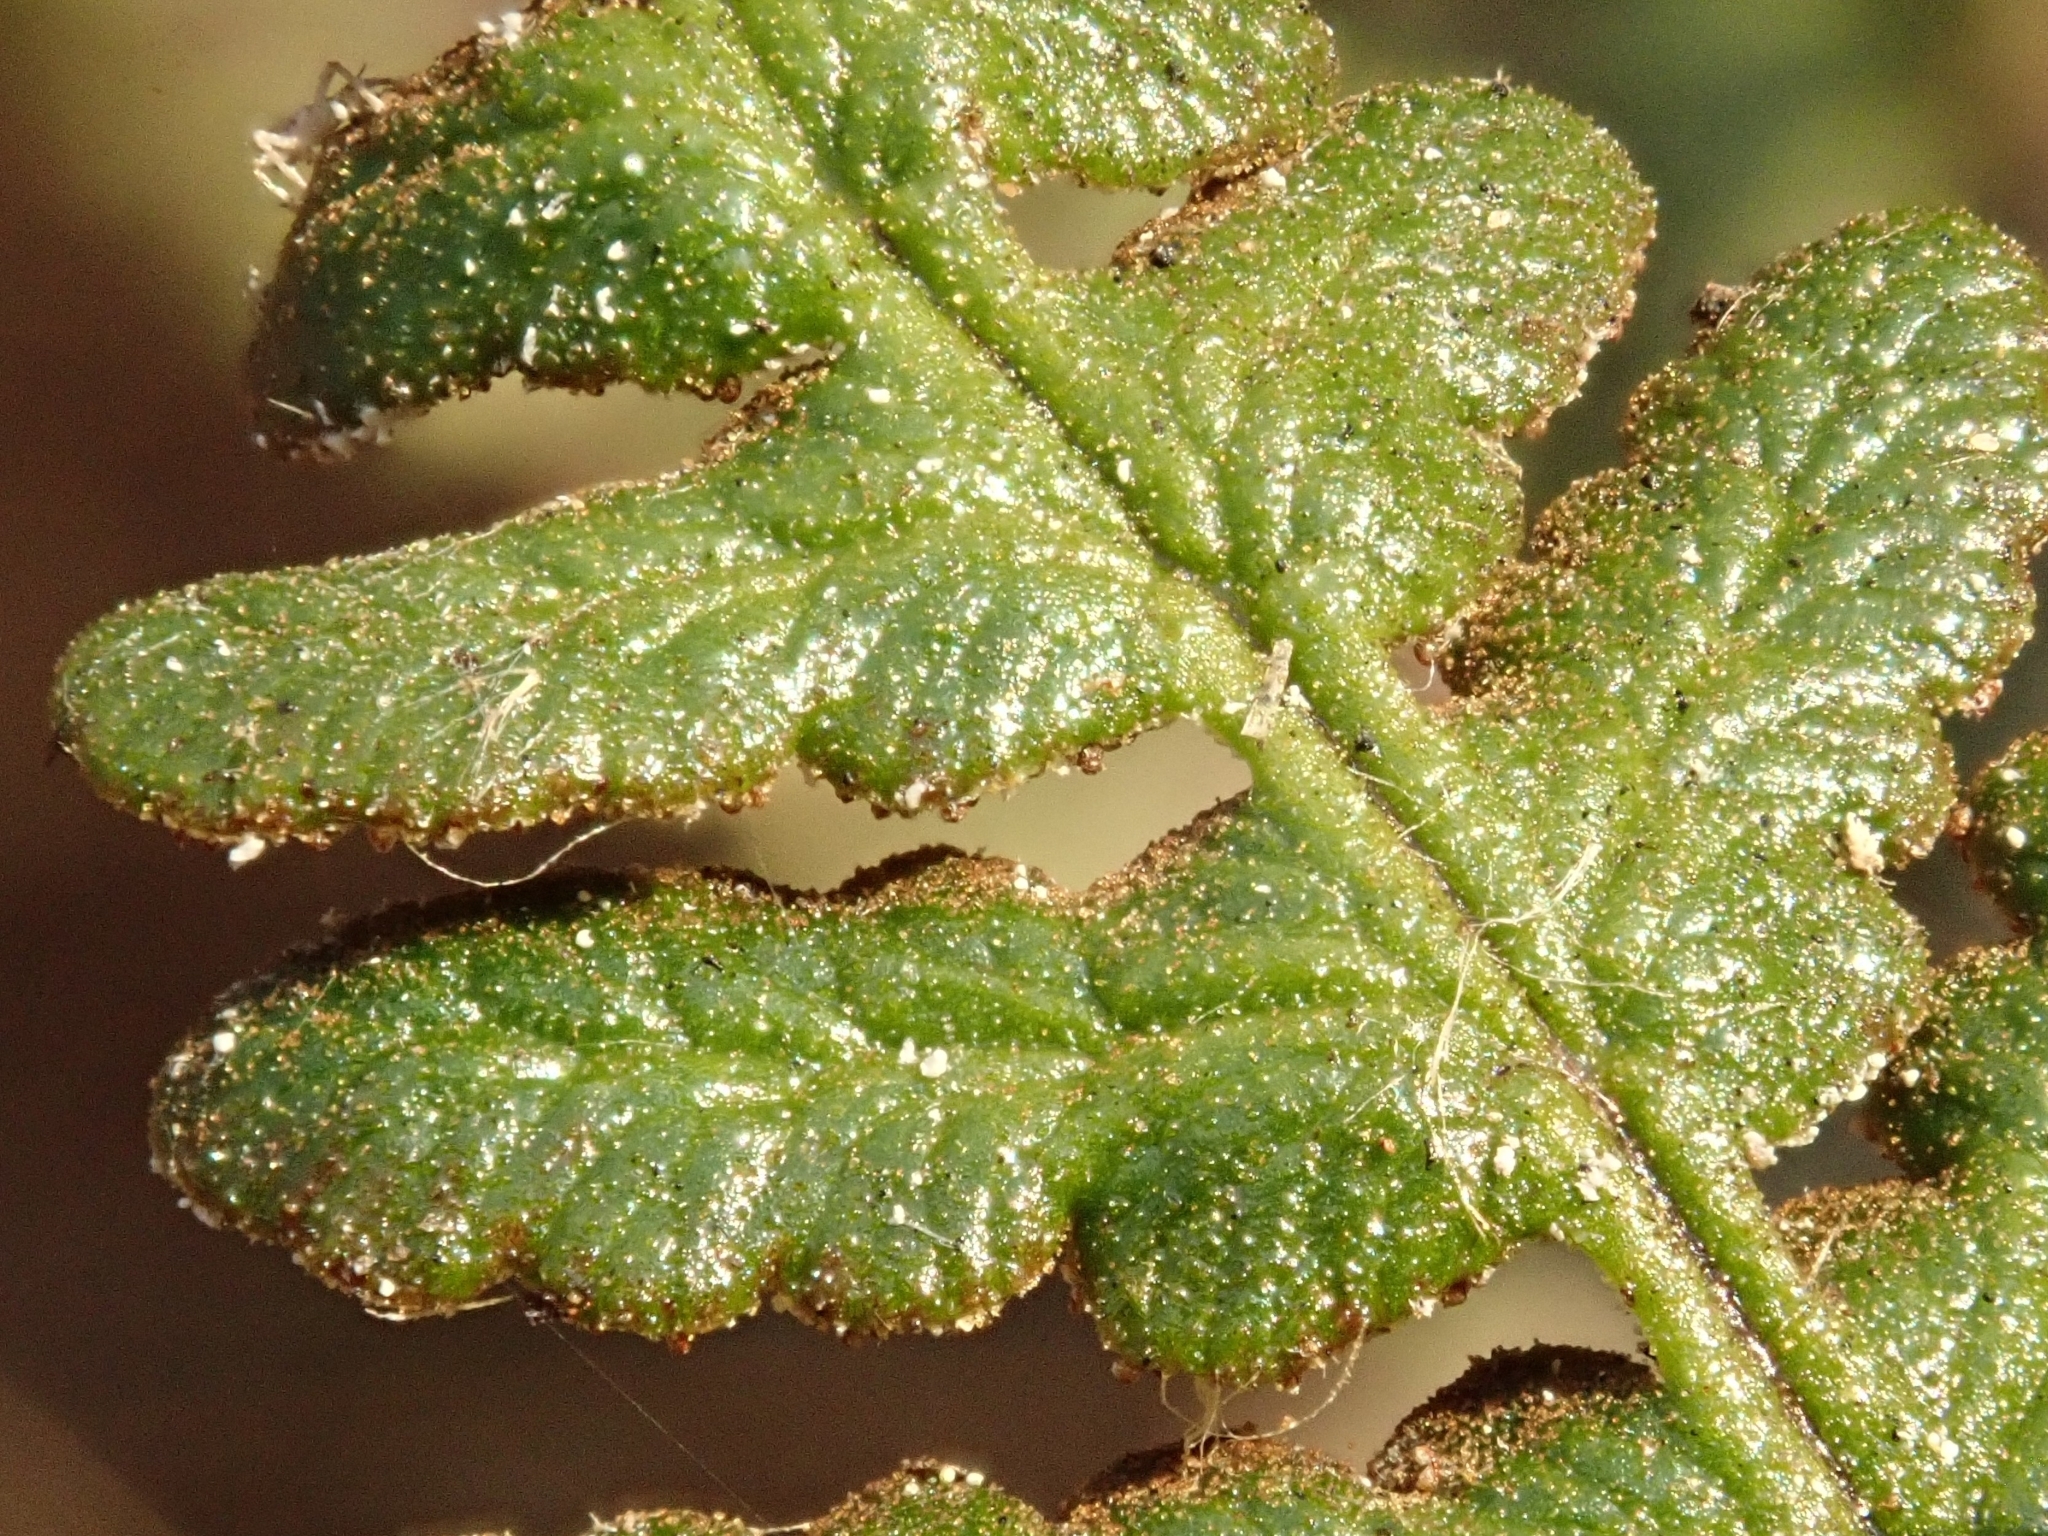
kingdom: Plantae
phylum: Tracheophyta
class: Polypodiopsida
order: Polypodiales
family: Pteridaceae
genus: Pentagramma
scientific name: Pentagramma glanduloviscida
